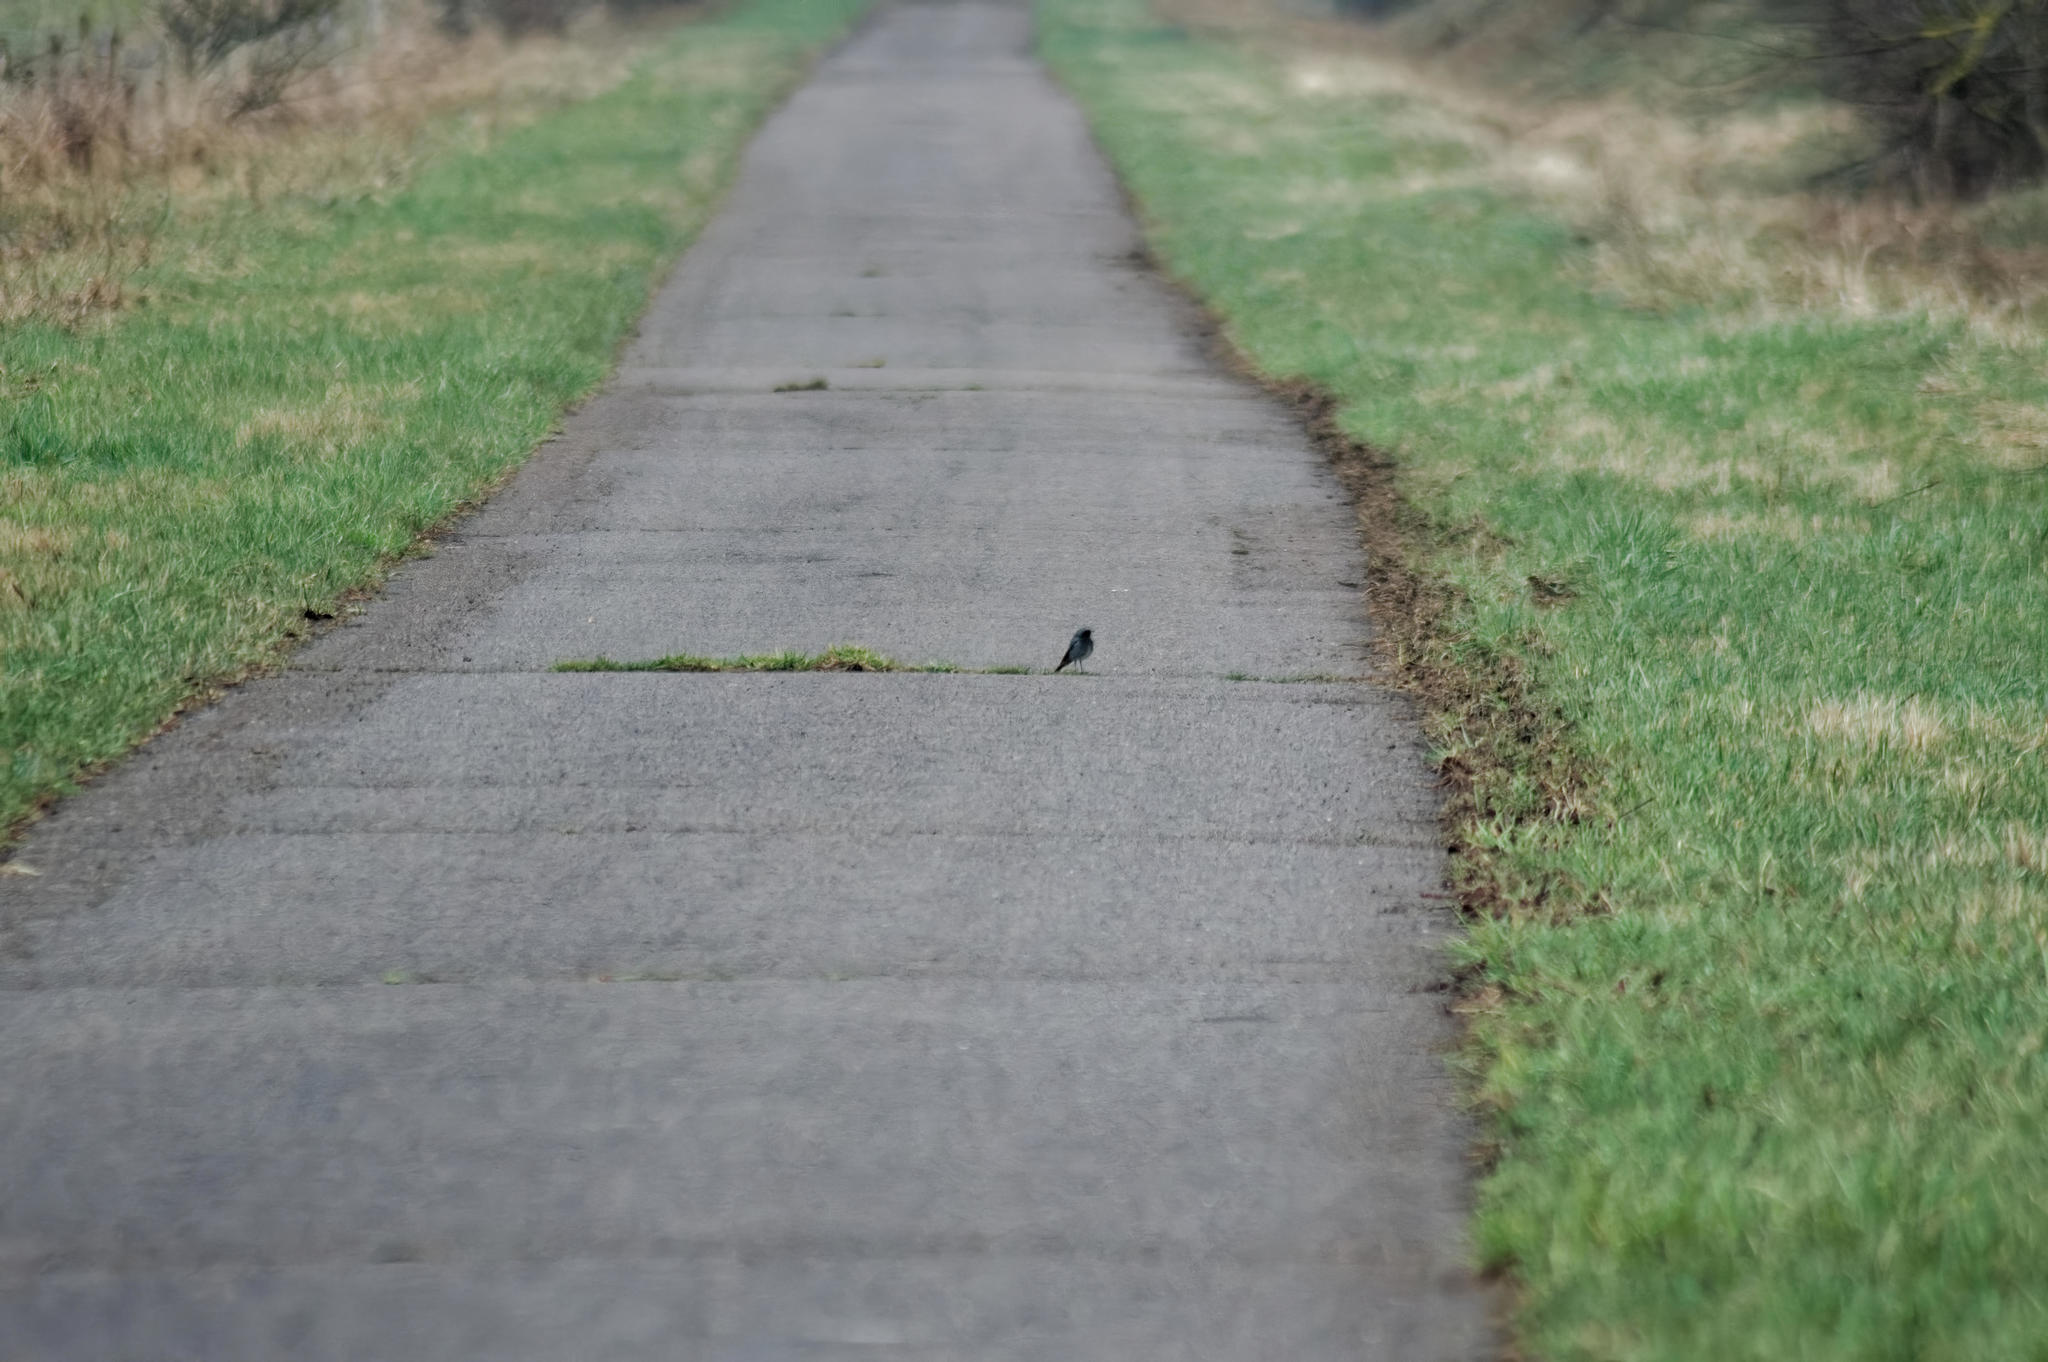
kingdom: Animalia
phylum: Chordata
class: Aves
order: Passeriformes
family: Muscicapidae
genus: Phoenicurus
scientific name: Phoenicurus ochruros
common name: Black redstart
